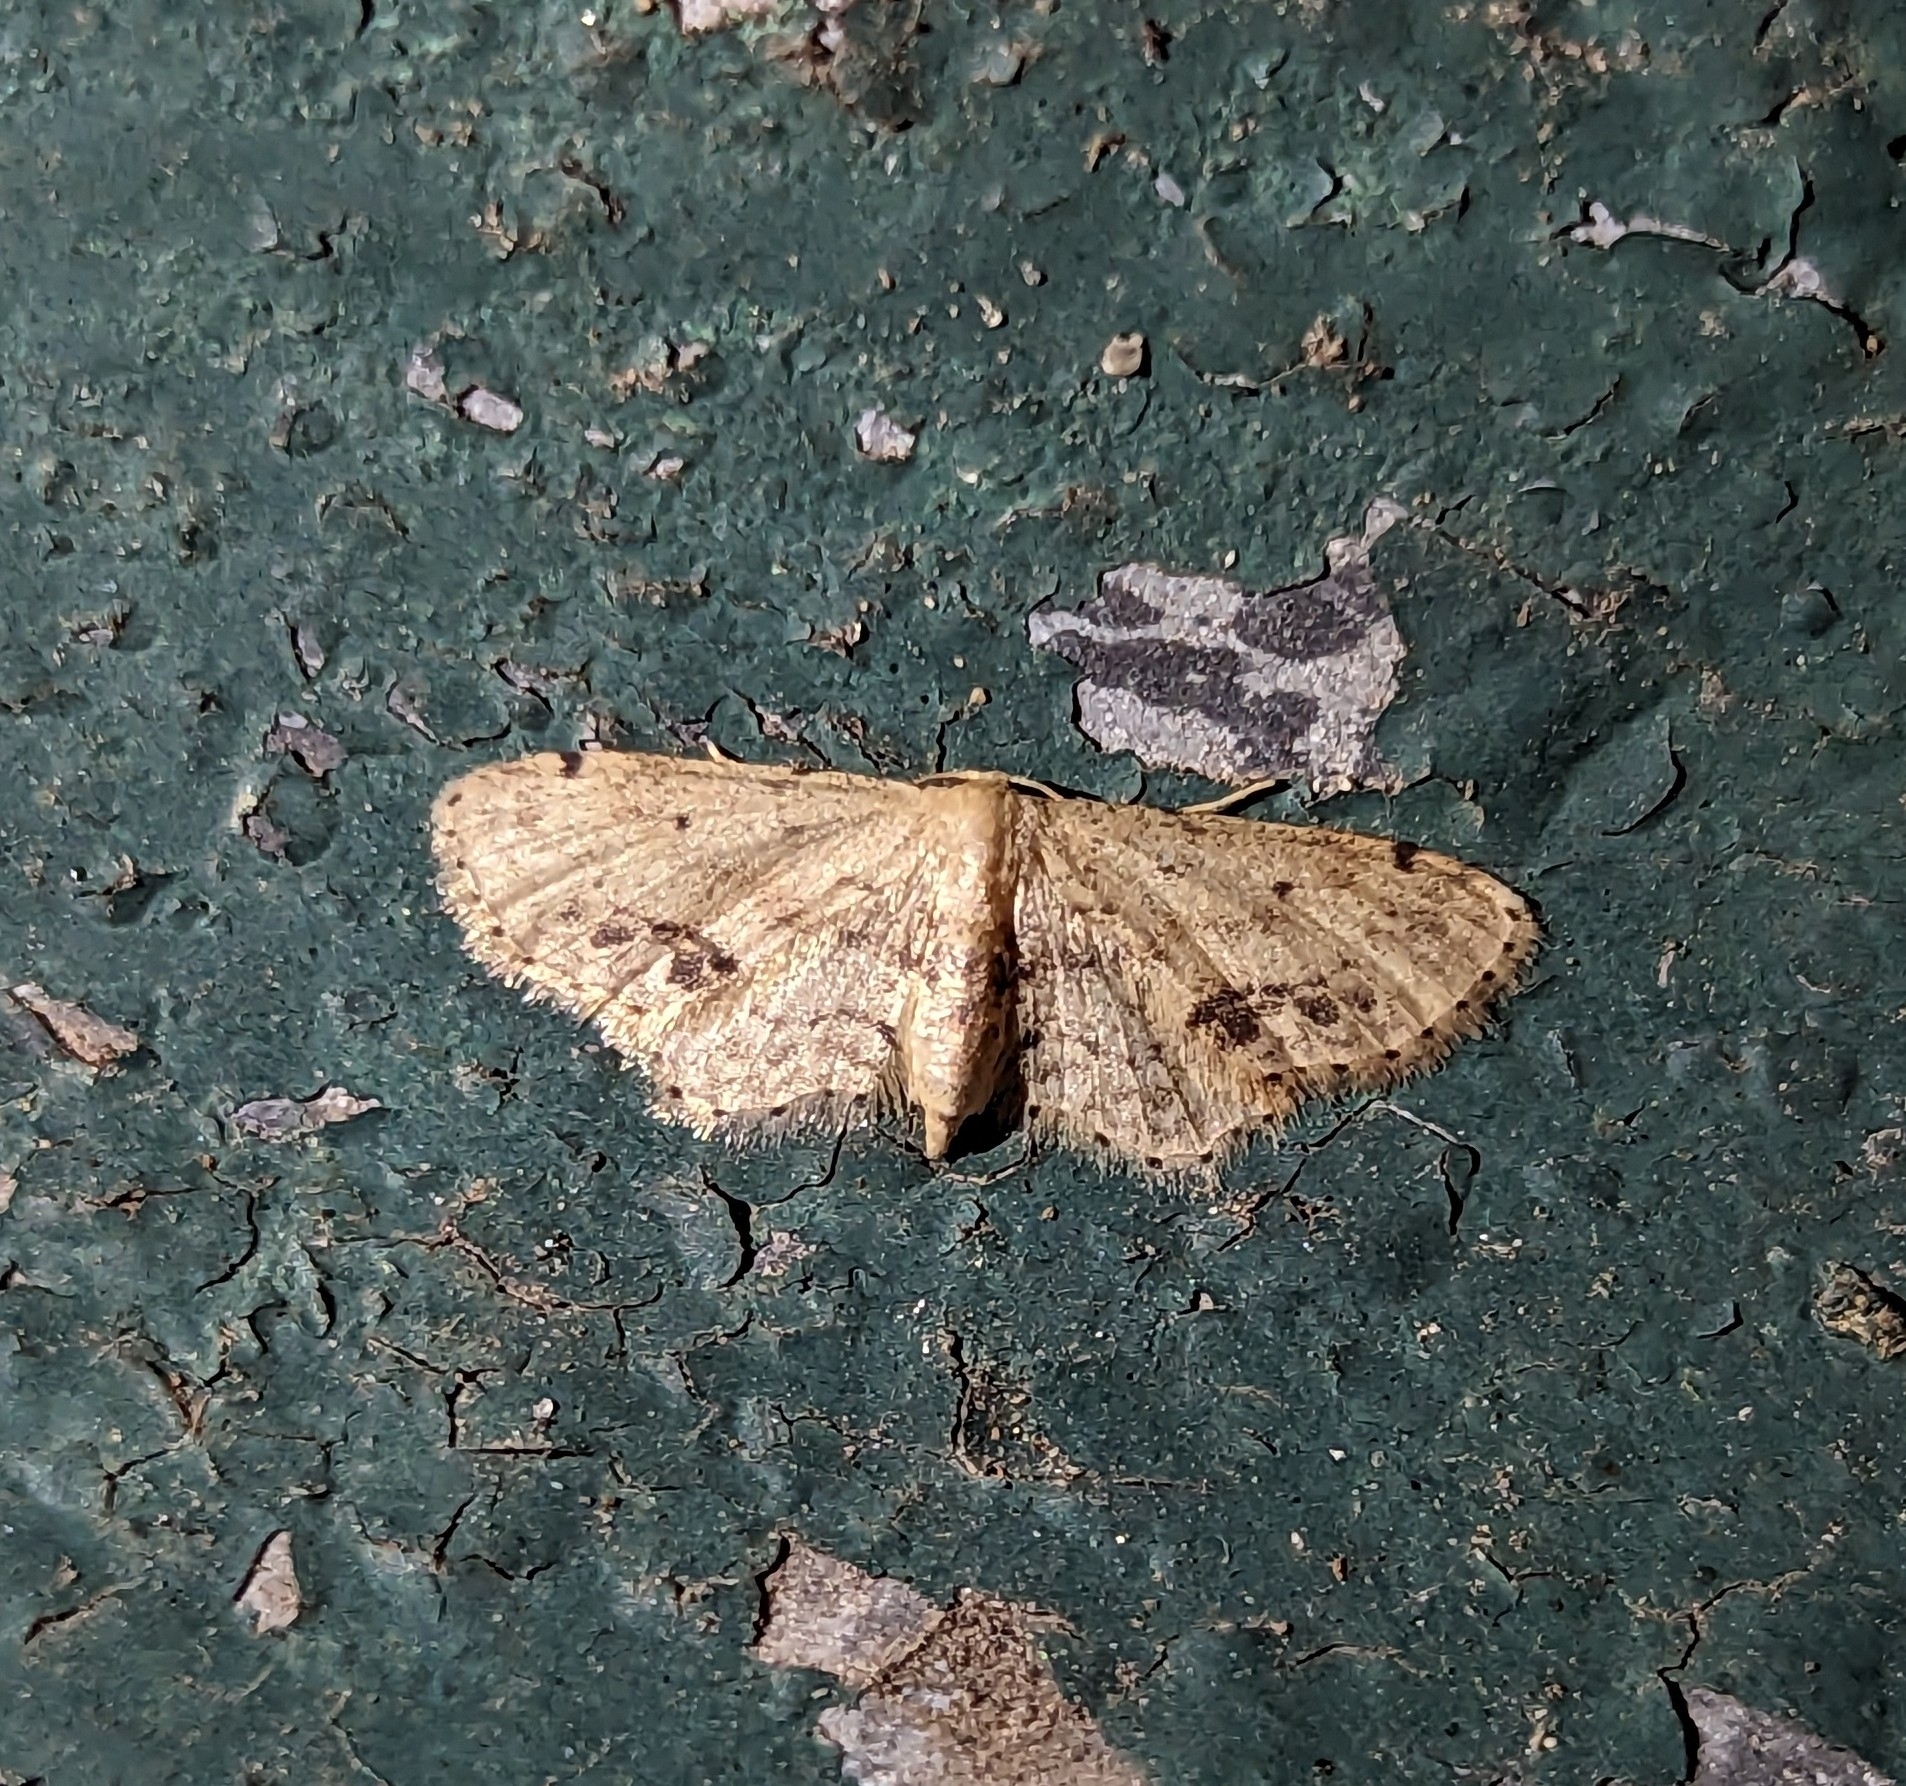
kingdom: Animalia
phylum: Arthropoda
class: Insecta
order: Lepidoptera
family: Geometridae
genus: Idaea
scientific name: Idaea dimidiata
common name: Single-dotted wave
